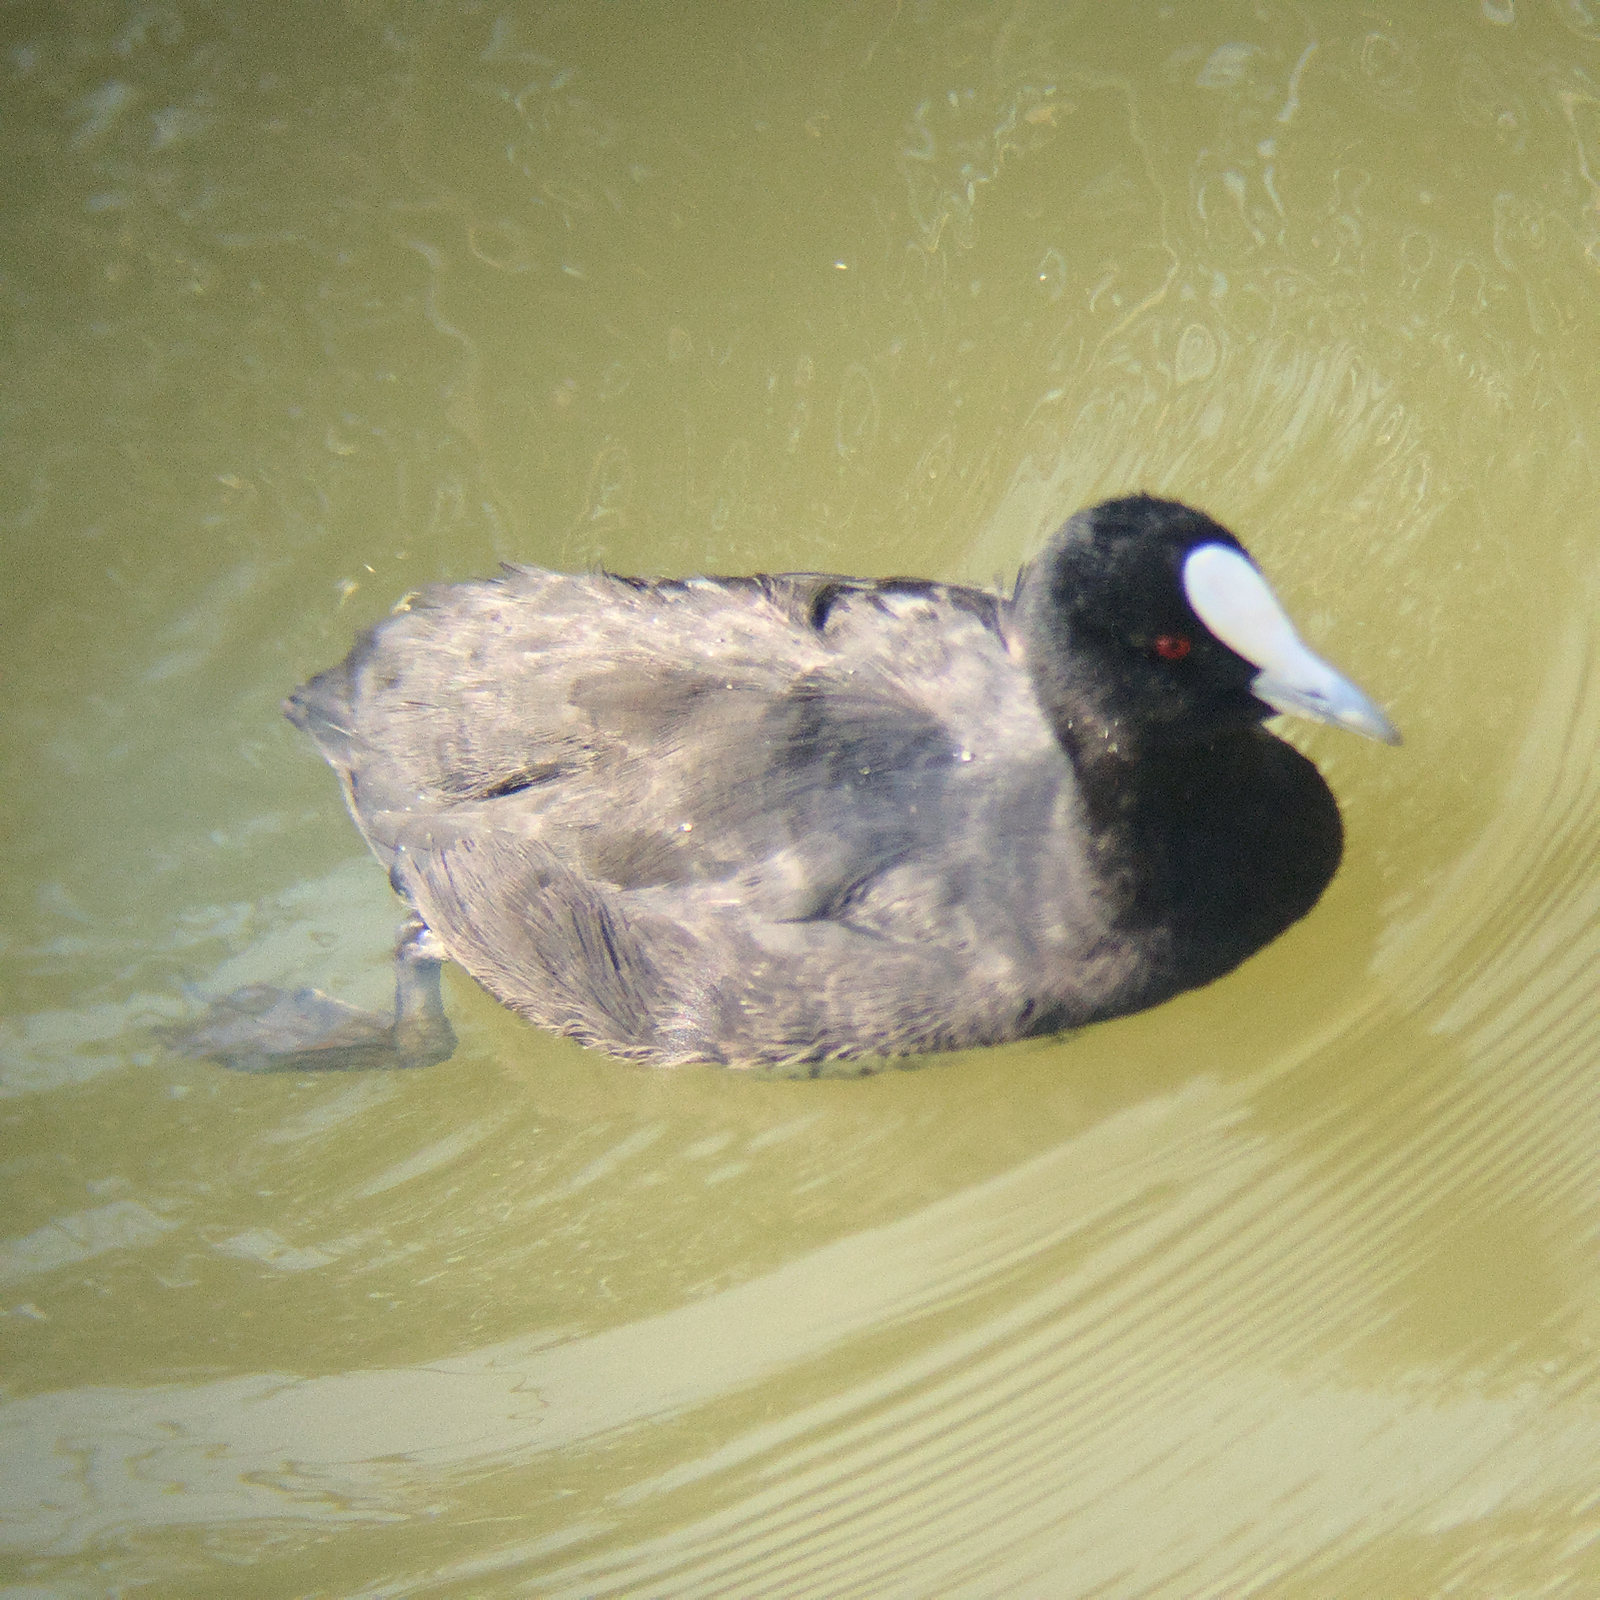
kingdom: Animalia
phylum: Chordata
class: Aves
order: Gruiformes
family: Rallidae
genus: Fulica
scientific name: Fulica atra
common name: Eurasian coot
